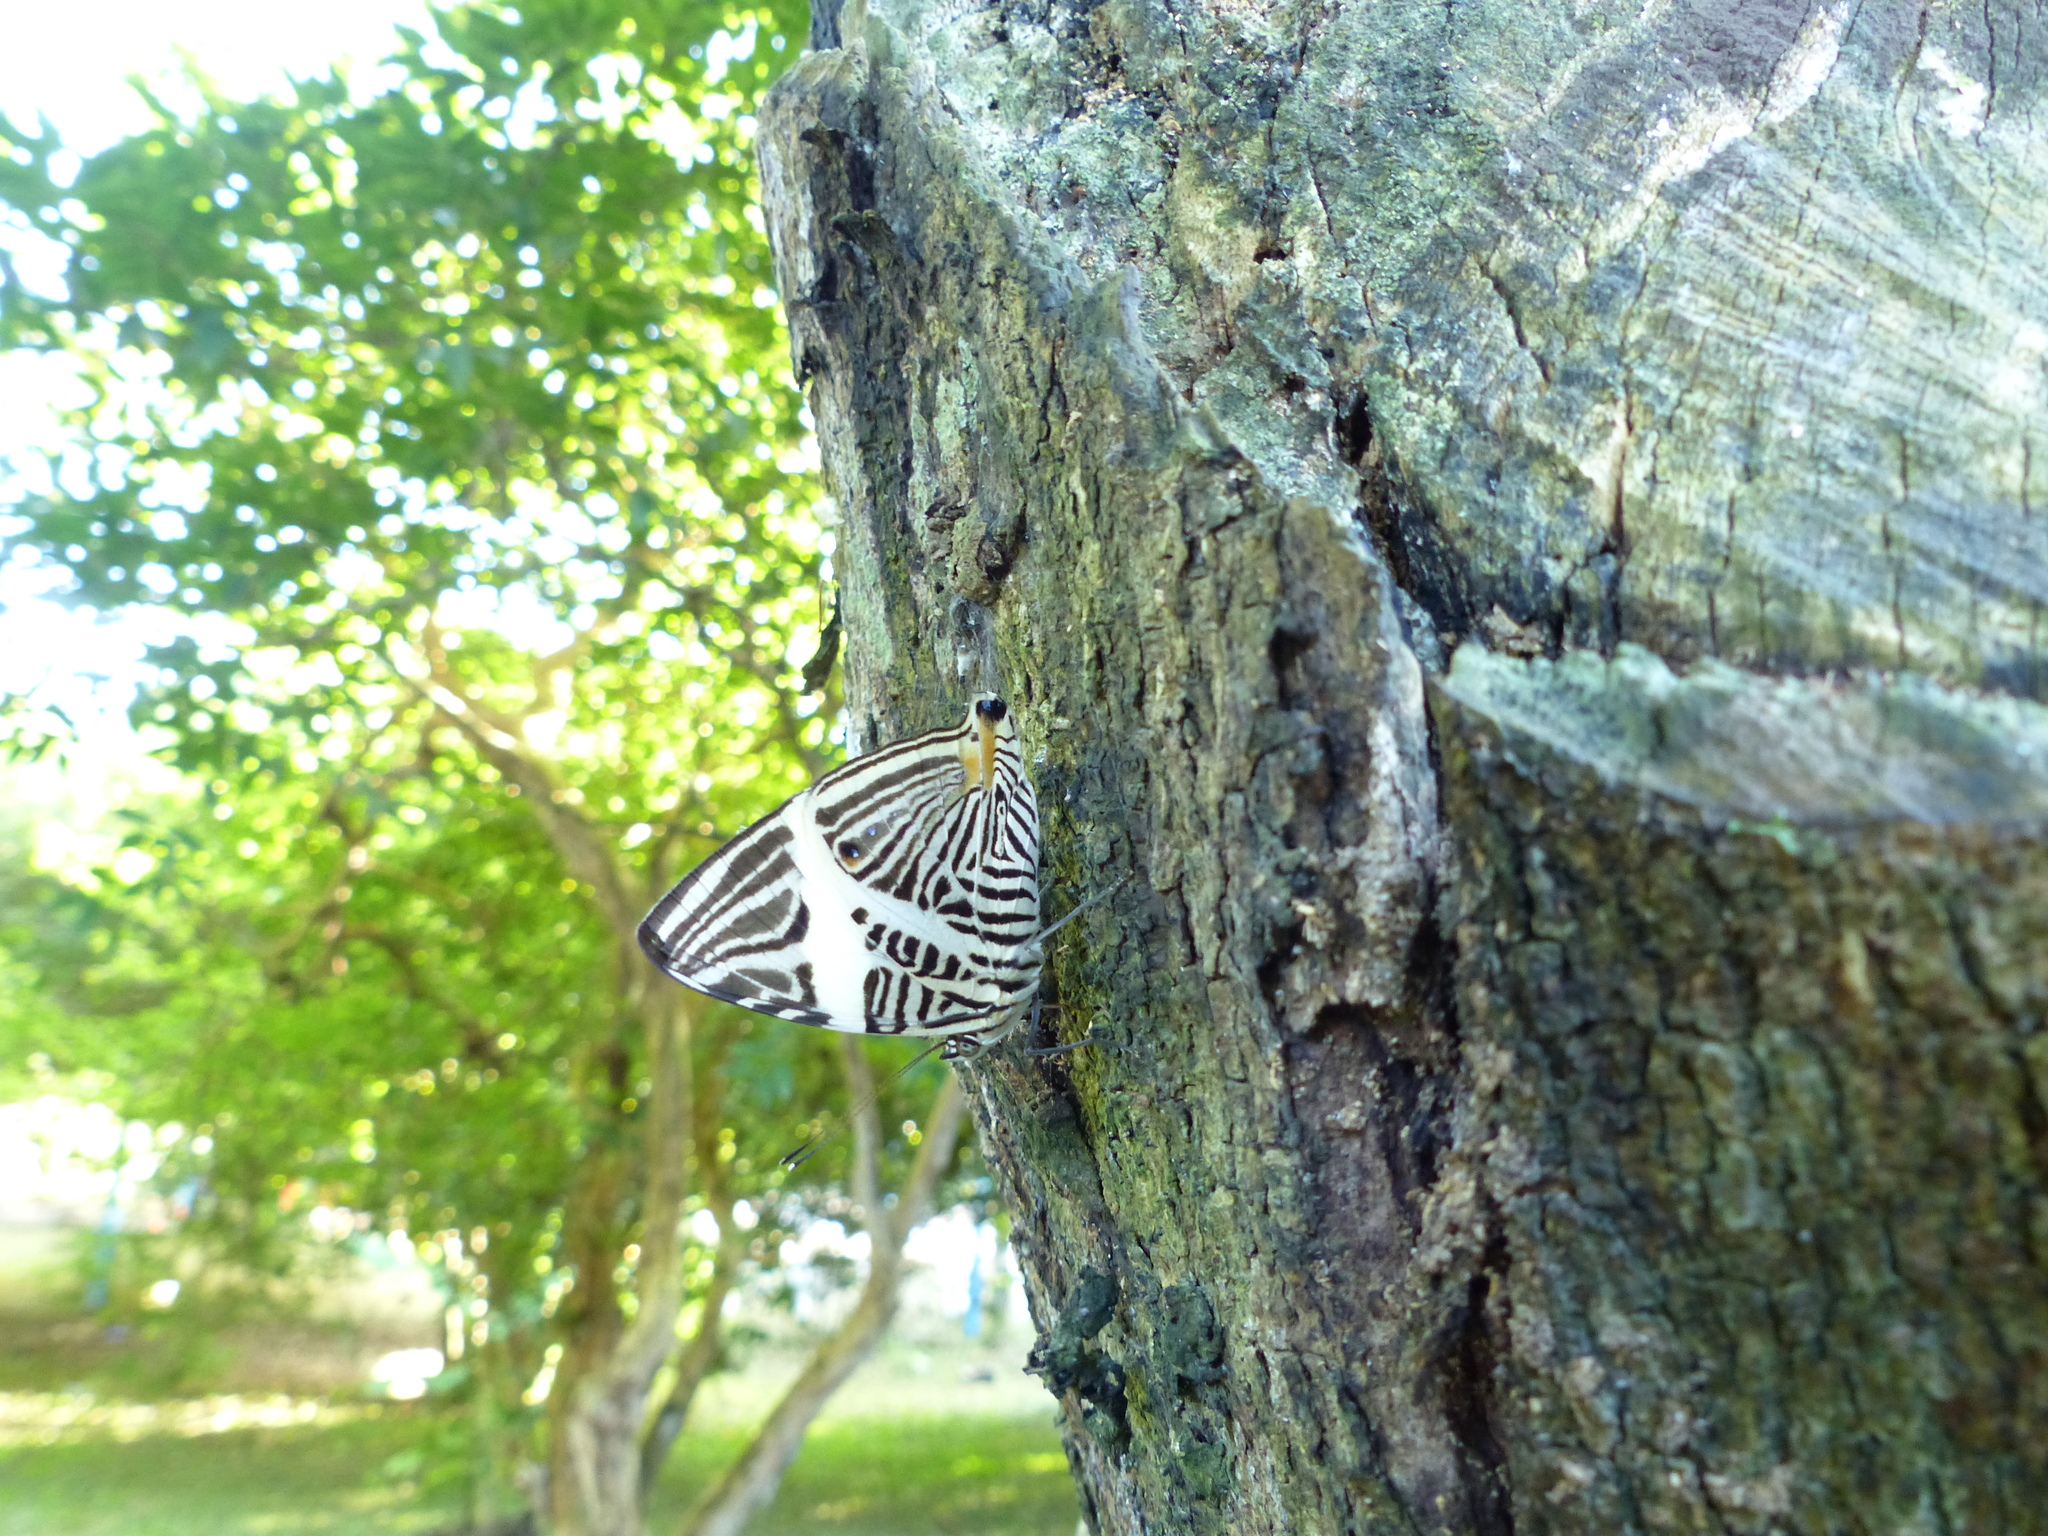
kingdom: Animalia
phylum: Arthropoda
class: Insecta
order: Lepidoptera
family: Nymphalidae
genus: Colobura
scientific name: Colobura dirce
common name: Dirce beauty
